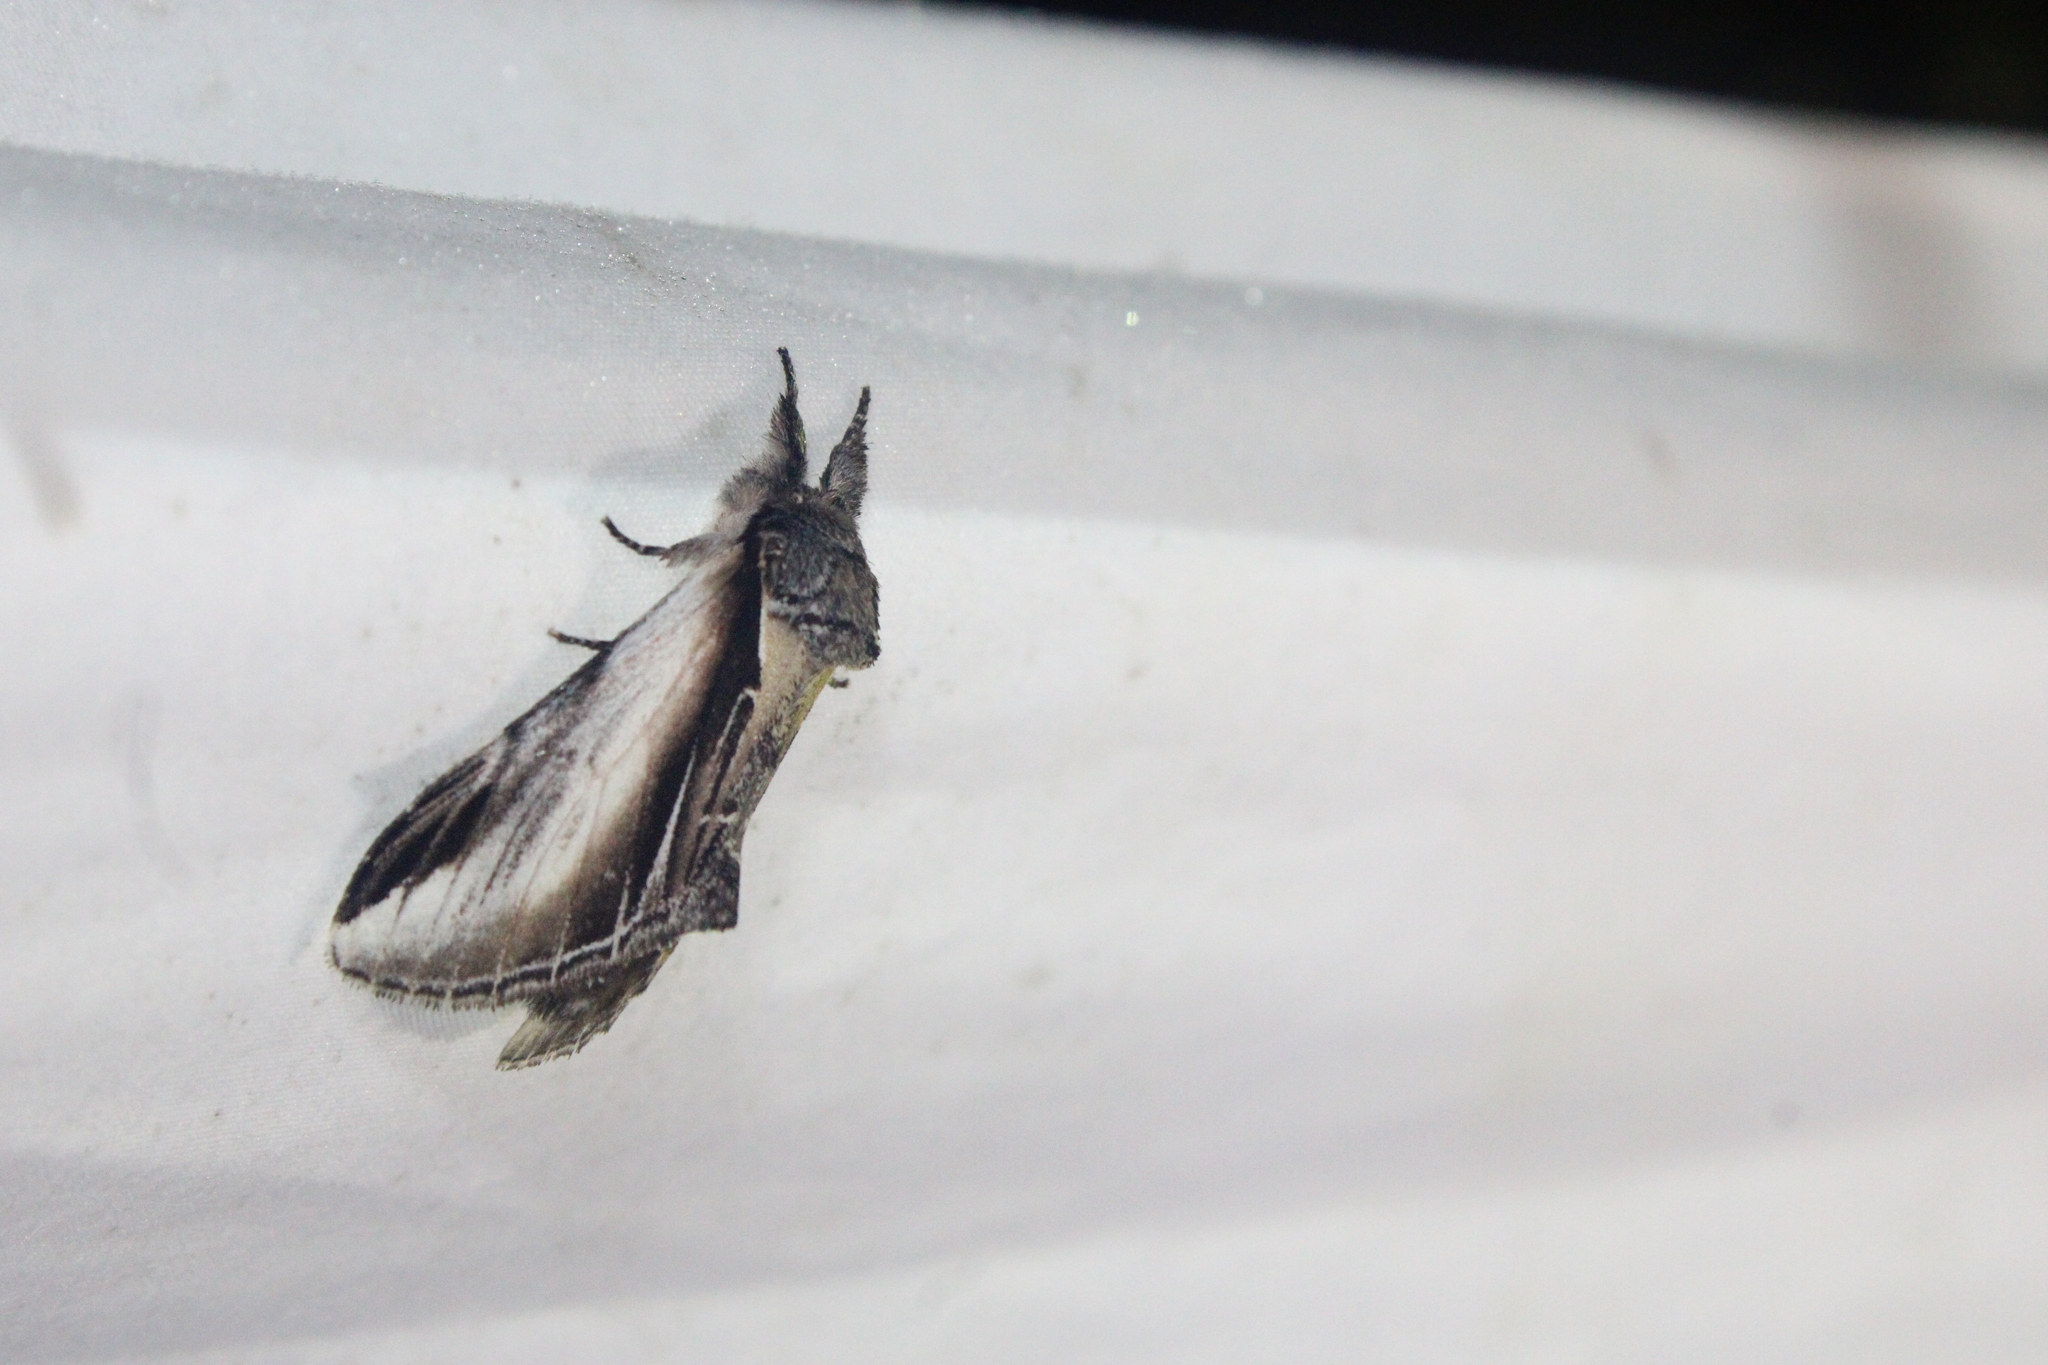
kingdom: Animalia
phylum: Arthropoda
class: Insecta
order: Lepidoptera
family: Notodontidae
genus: Pheosia
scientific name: Pheosia rimosa
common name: Black-rimmed prominent
